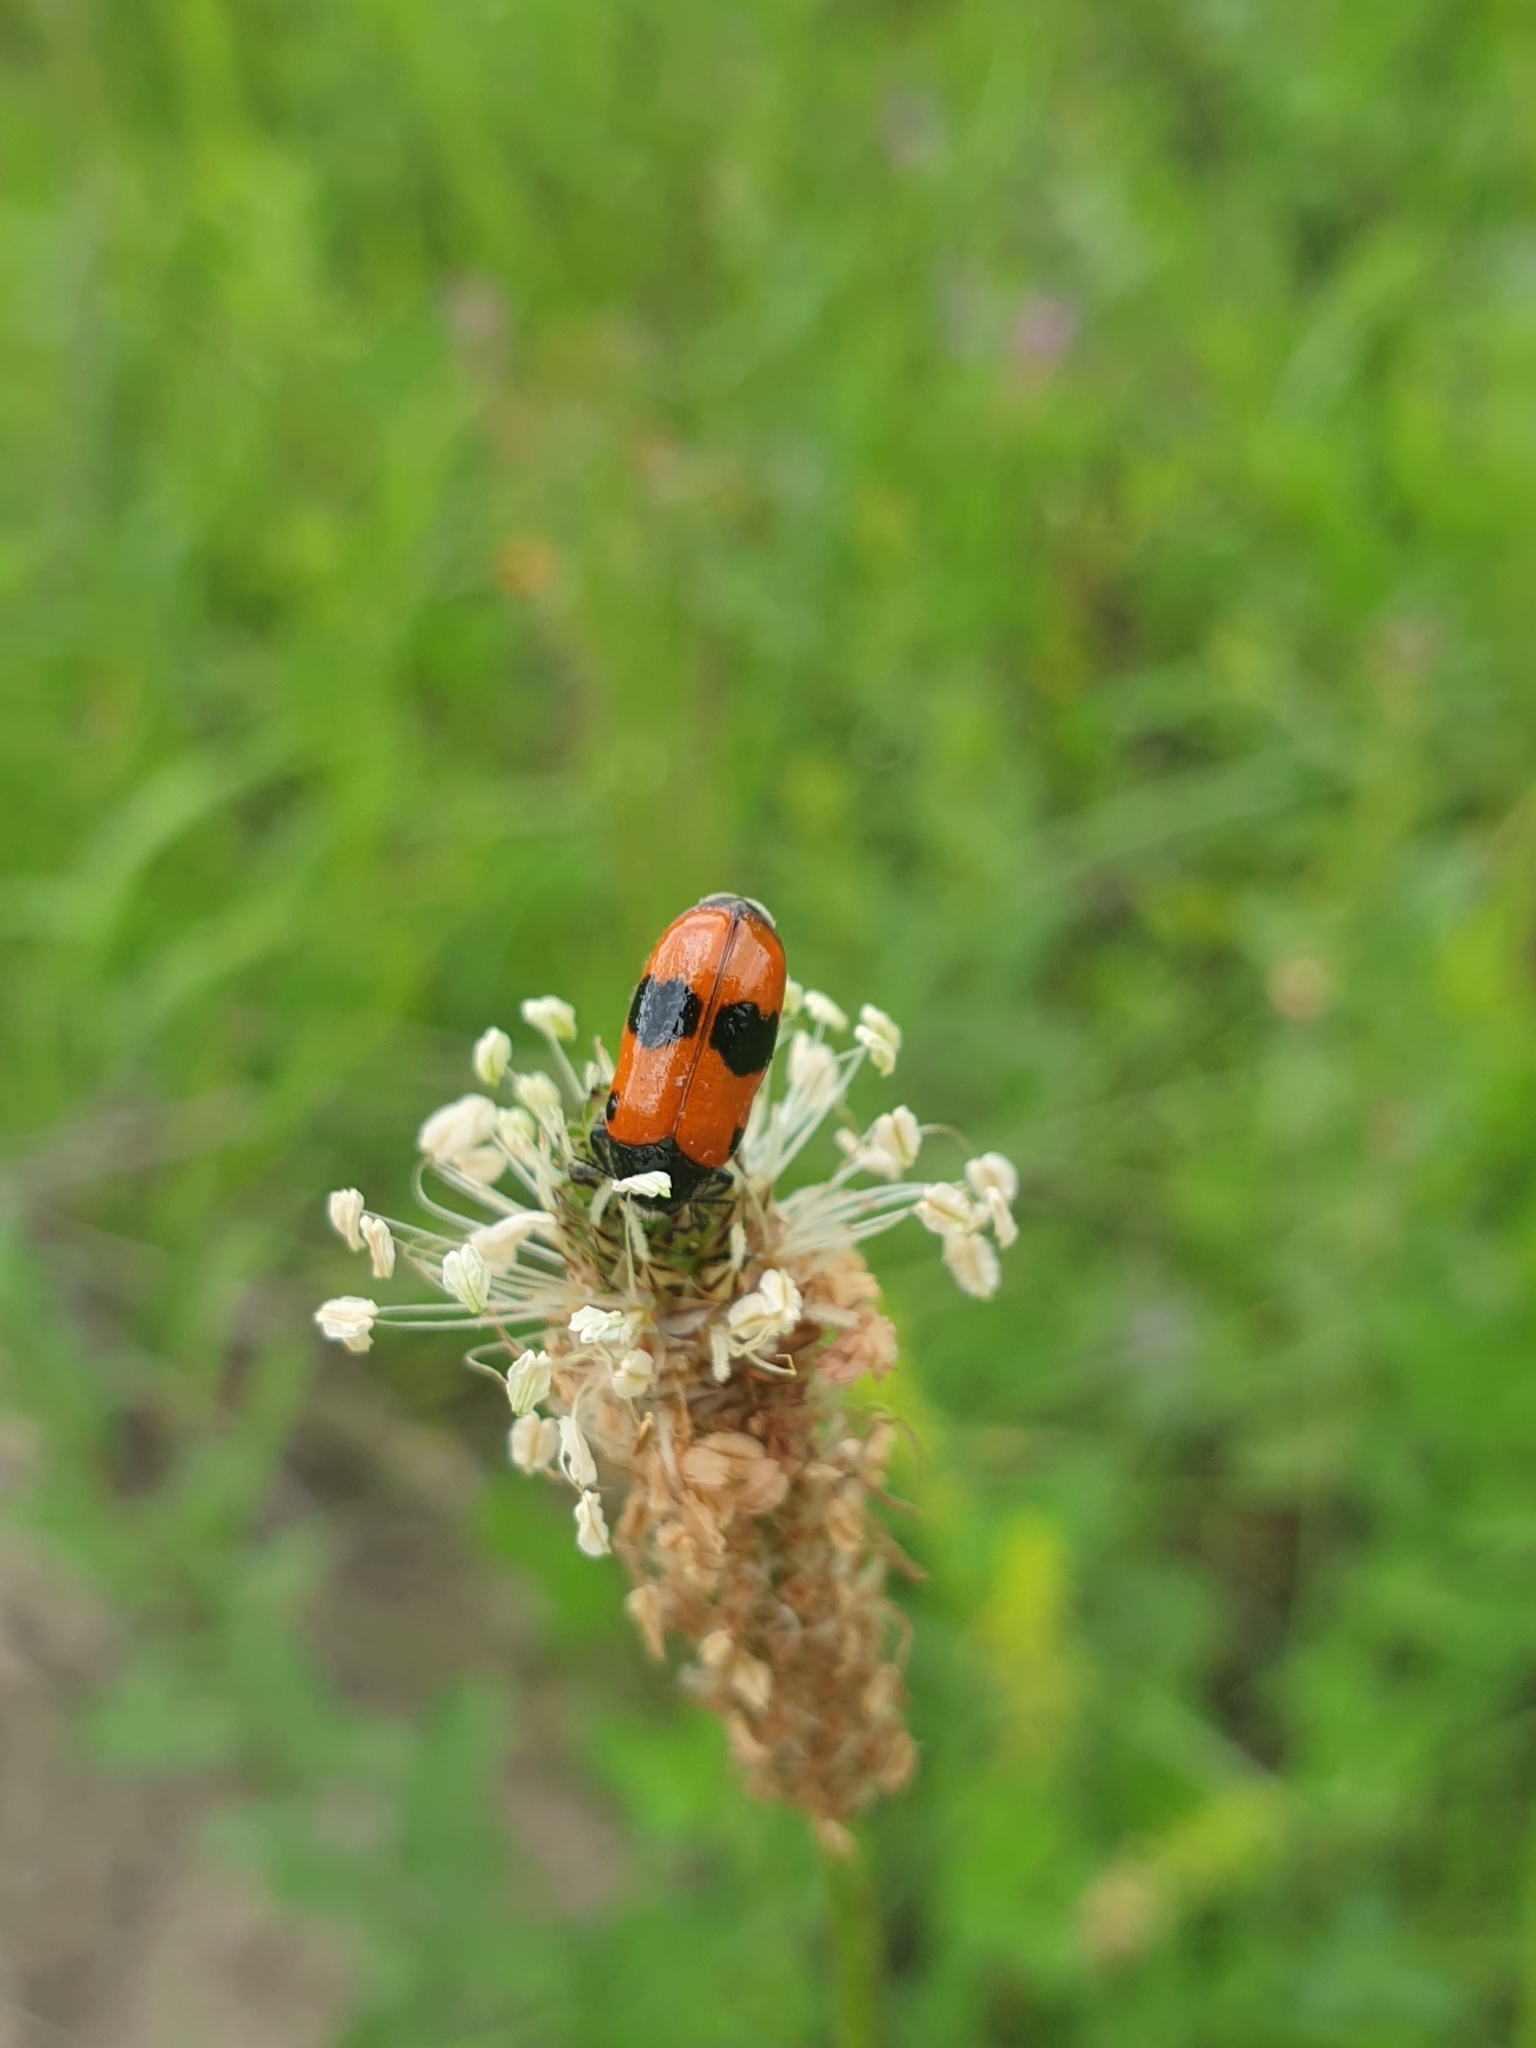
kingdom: Animalia
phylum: Arthropoda
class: Insecta
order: Coleoptera
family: Chrysomelidae
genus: Clytra
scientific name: Clytra laeviuscula
